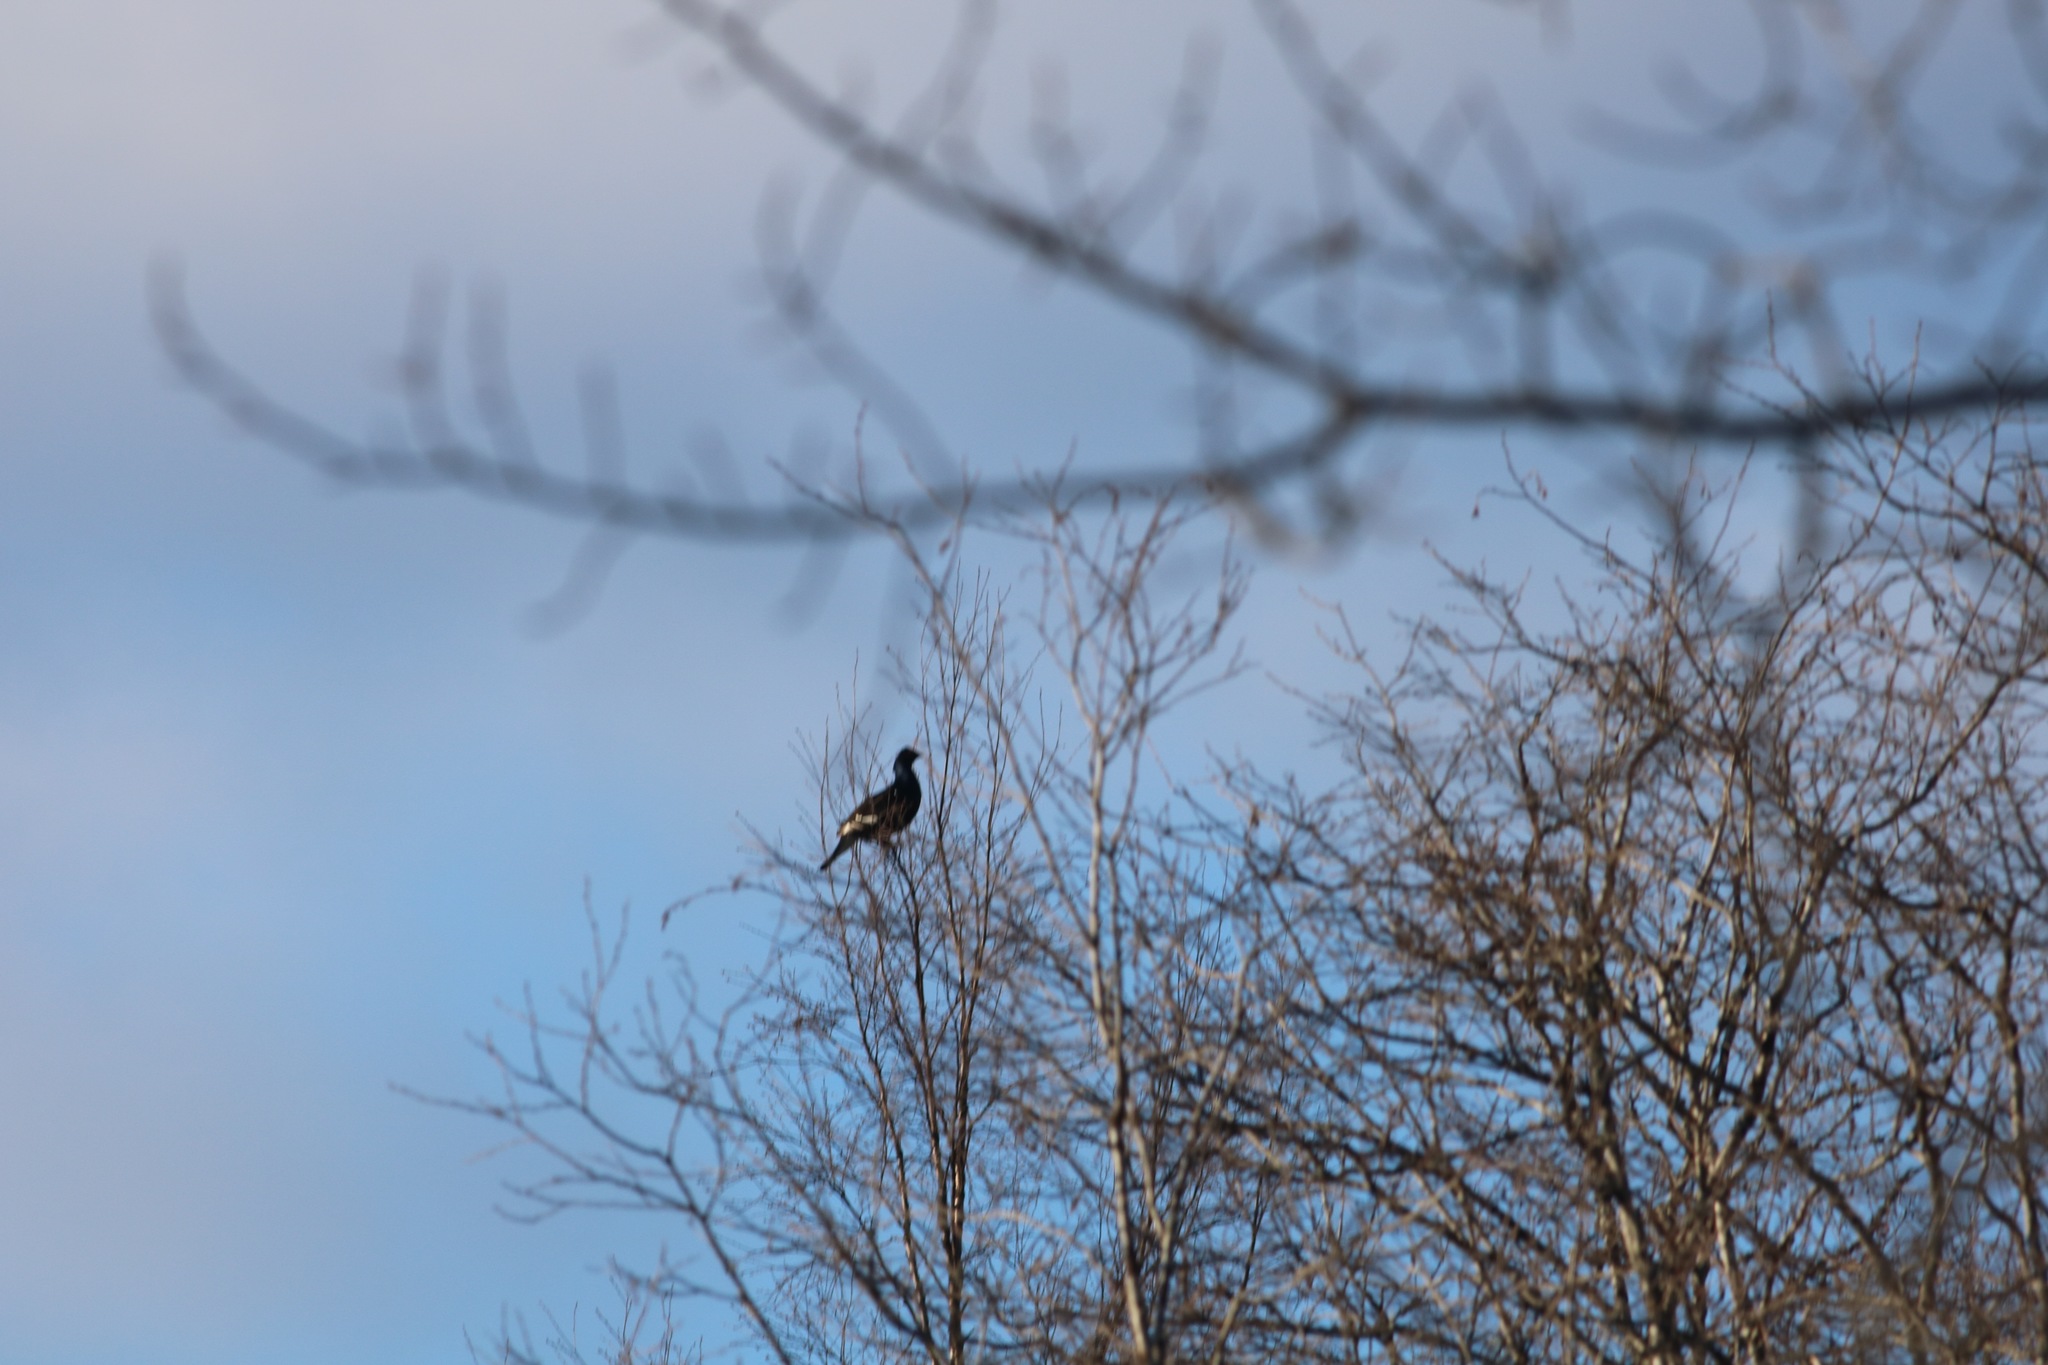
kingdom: Animalia
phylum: Chordata
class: Aves
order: Galliformes
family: Phasianidae
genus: Lyrurus
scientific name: Lyrurus tetrix
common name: Black grouse
